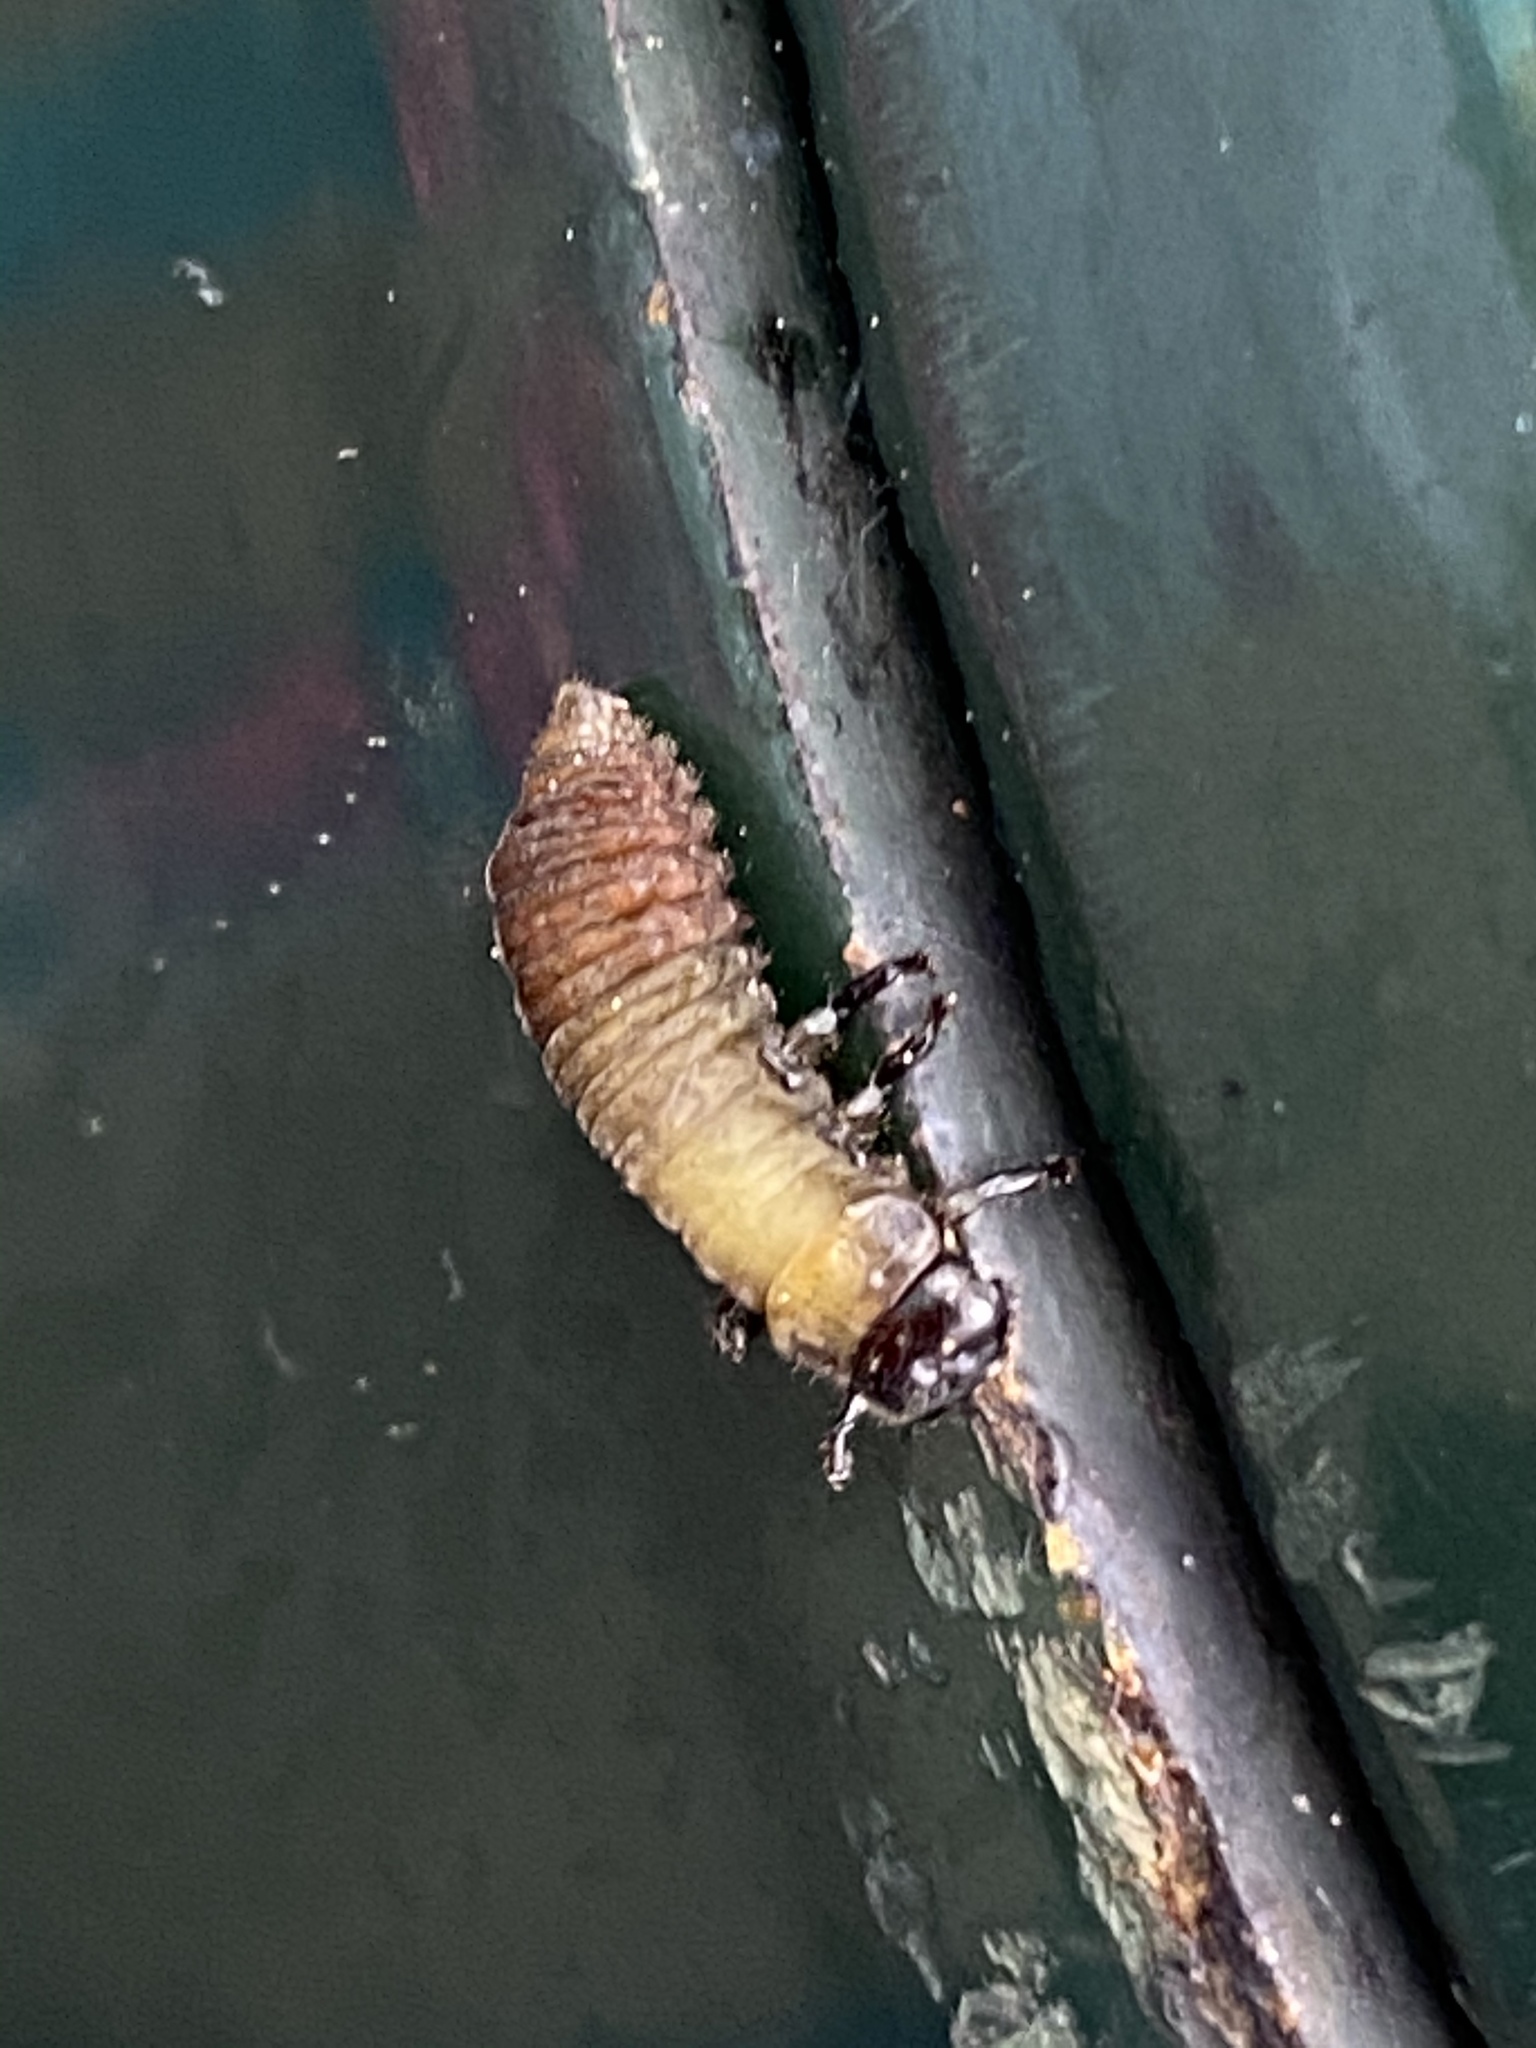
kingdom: Animalia
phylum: Arthropoda
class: Insecta
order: Coleoptera
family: Chrysomelidae
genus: Trachymela
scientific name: Trachymela sloanei
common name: Australian tortoise beetle
